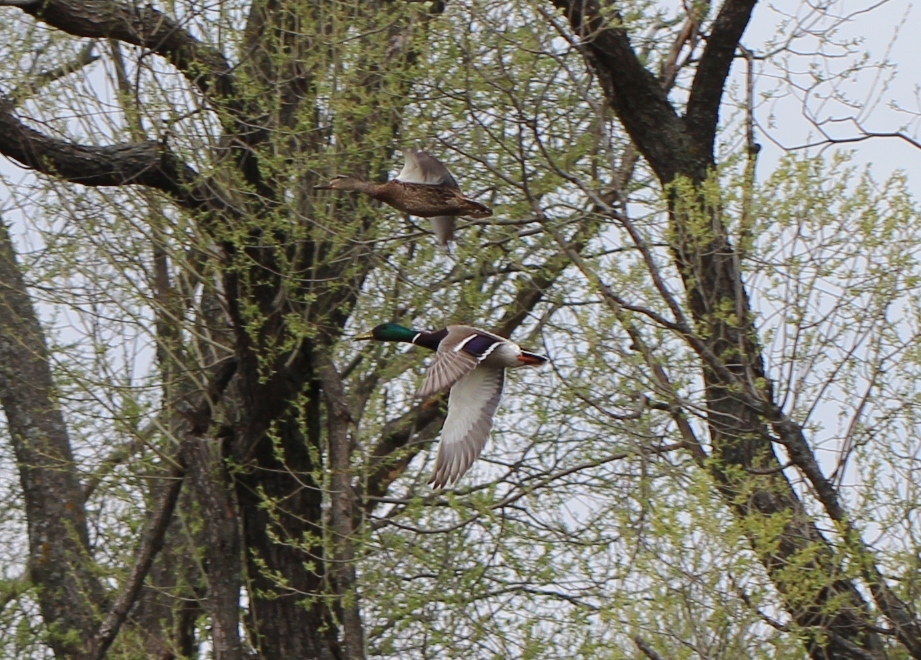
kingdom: Animalia
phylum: Chordata
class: Aves
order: Anseriformes
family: Anatidae
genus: Anas
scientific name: Anas platyrhynchos
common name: Mallard
